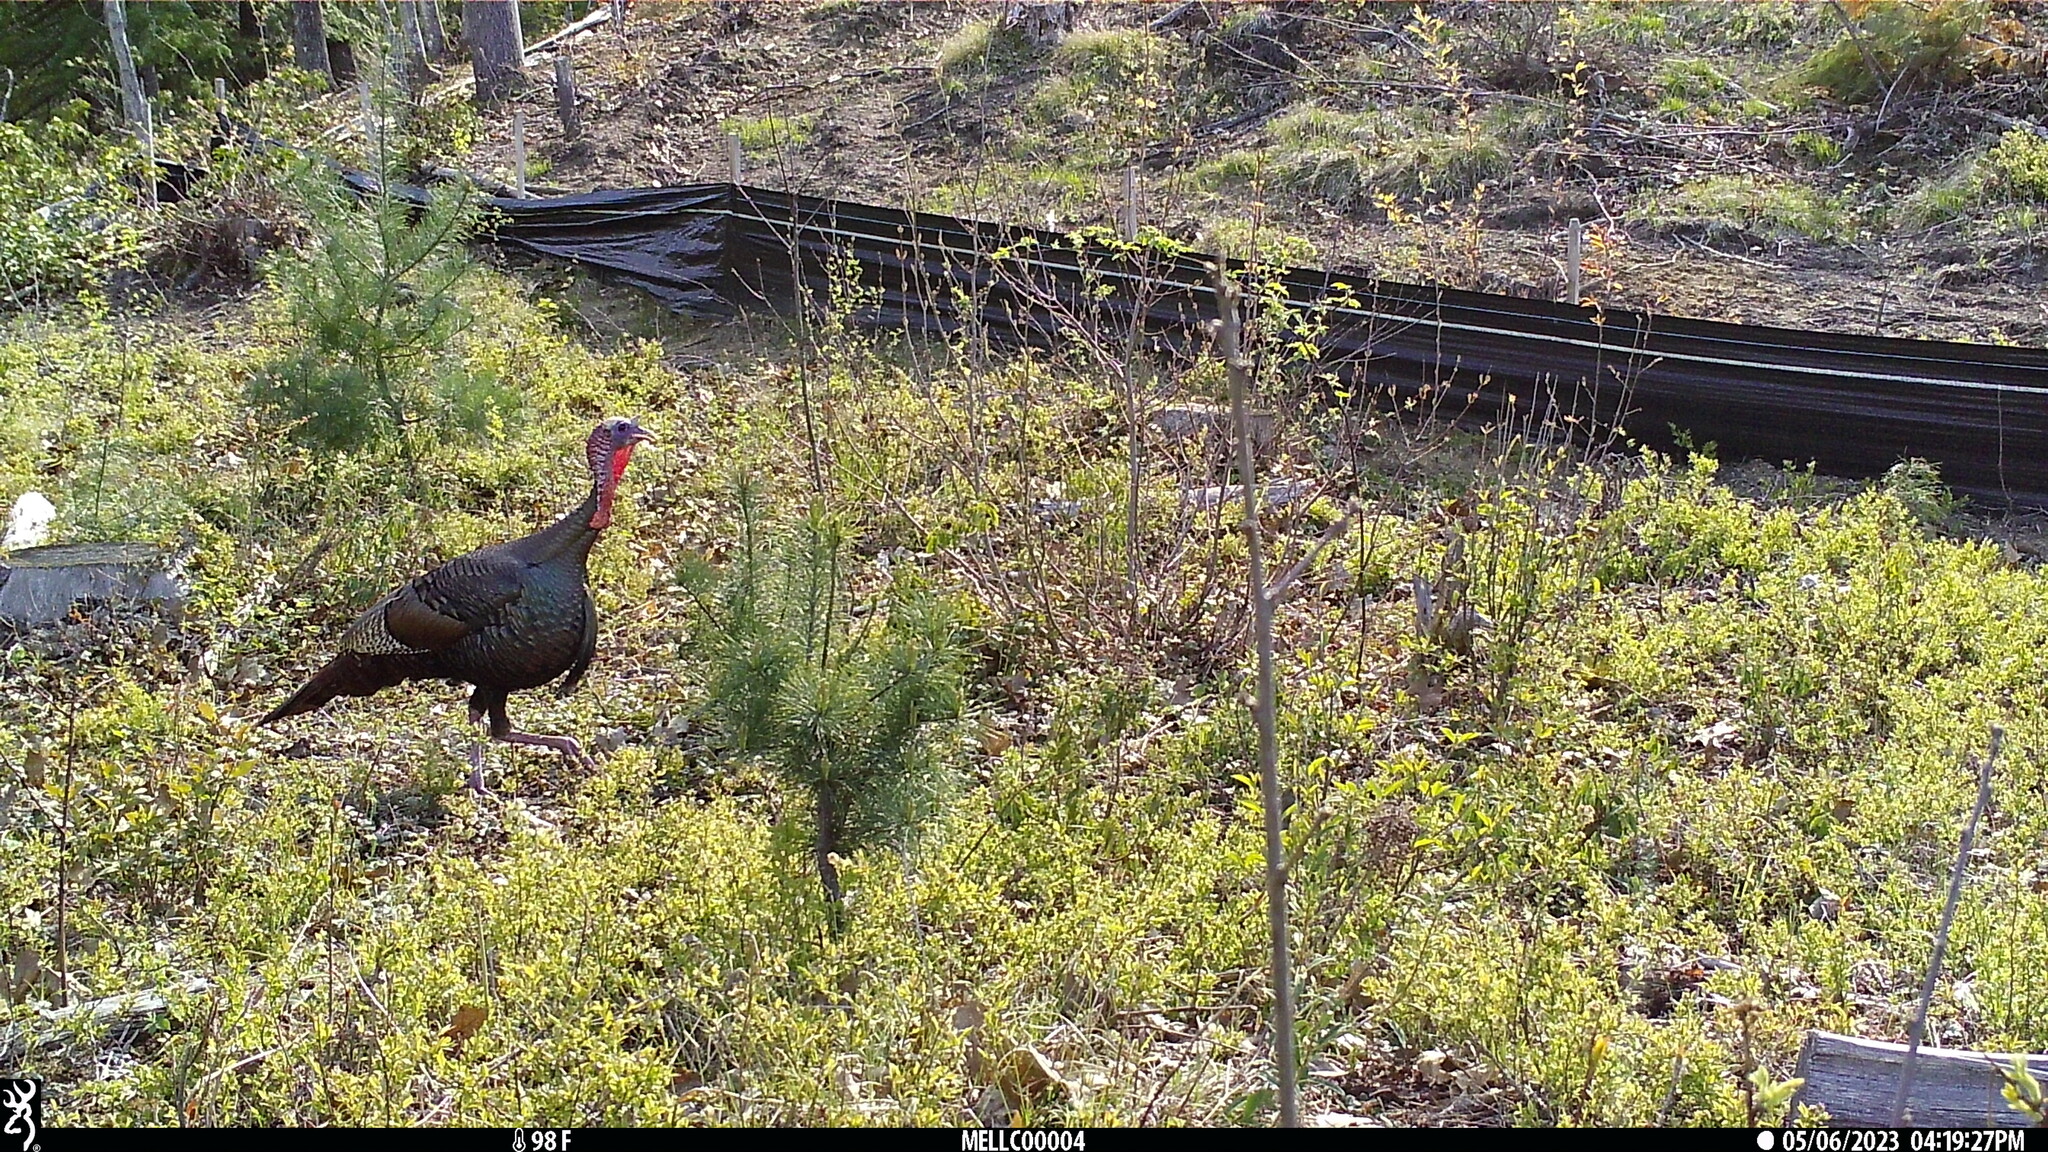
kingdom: Animalia
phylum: Chordata
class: Aves
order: Galliformes
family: Phasianidae
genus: Meleagris
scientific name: Meleagris gallopavo
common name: Wild turkey
